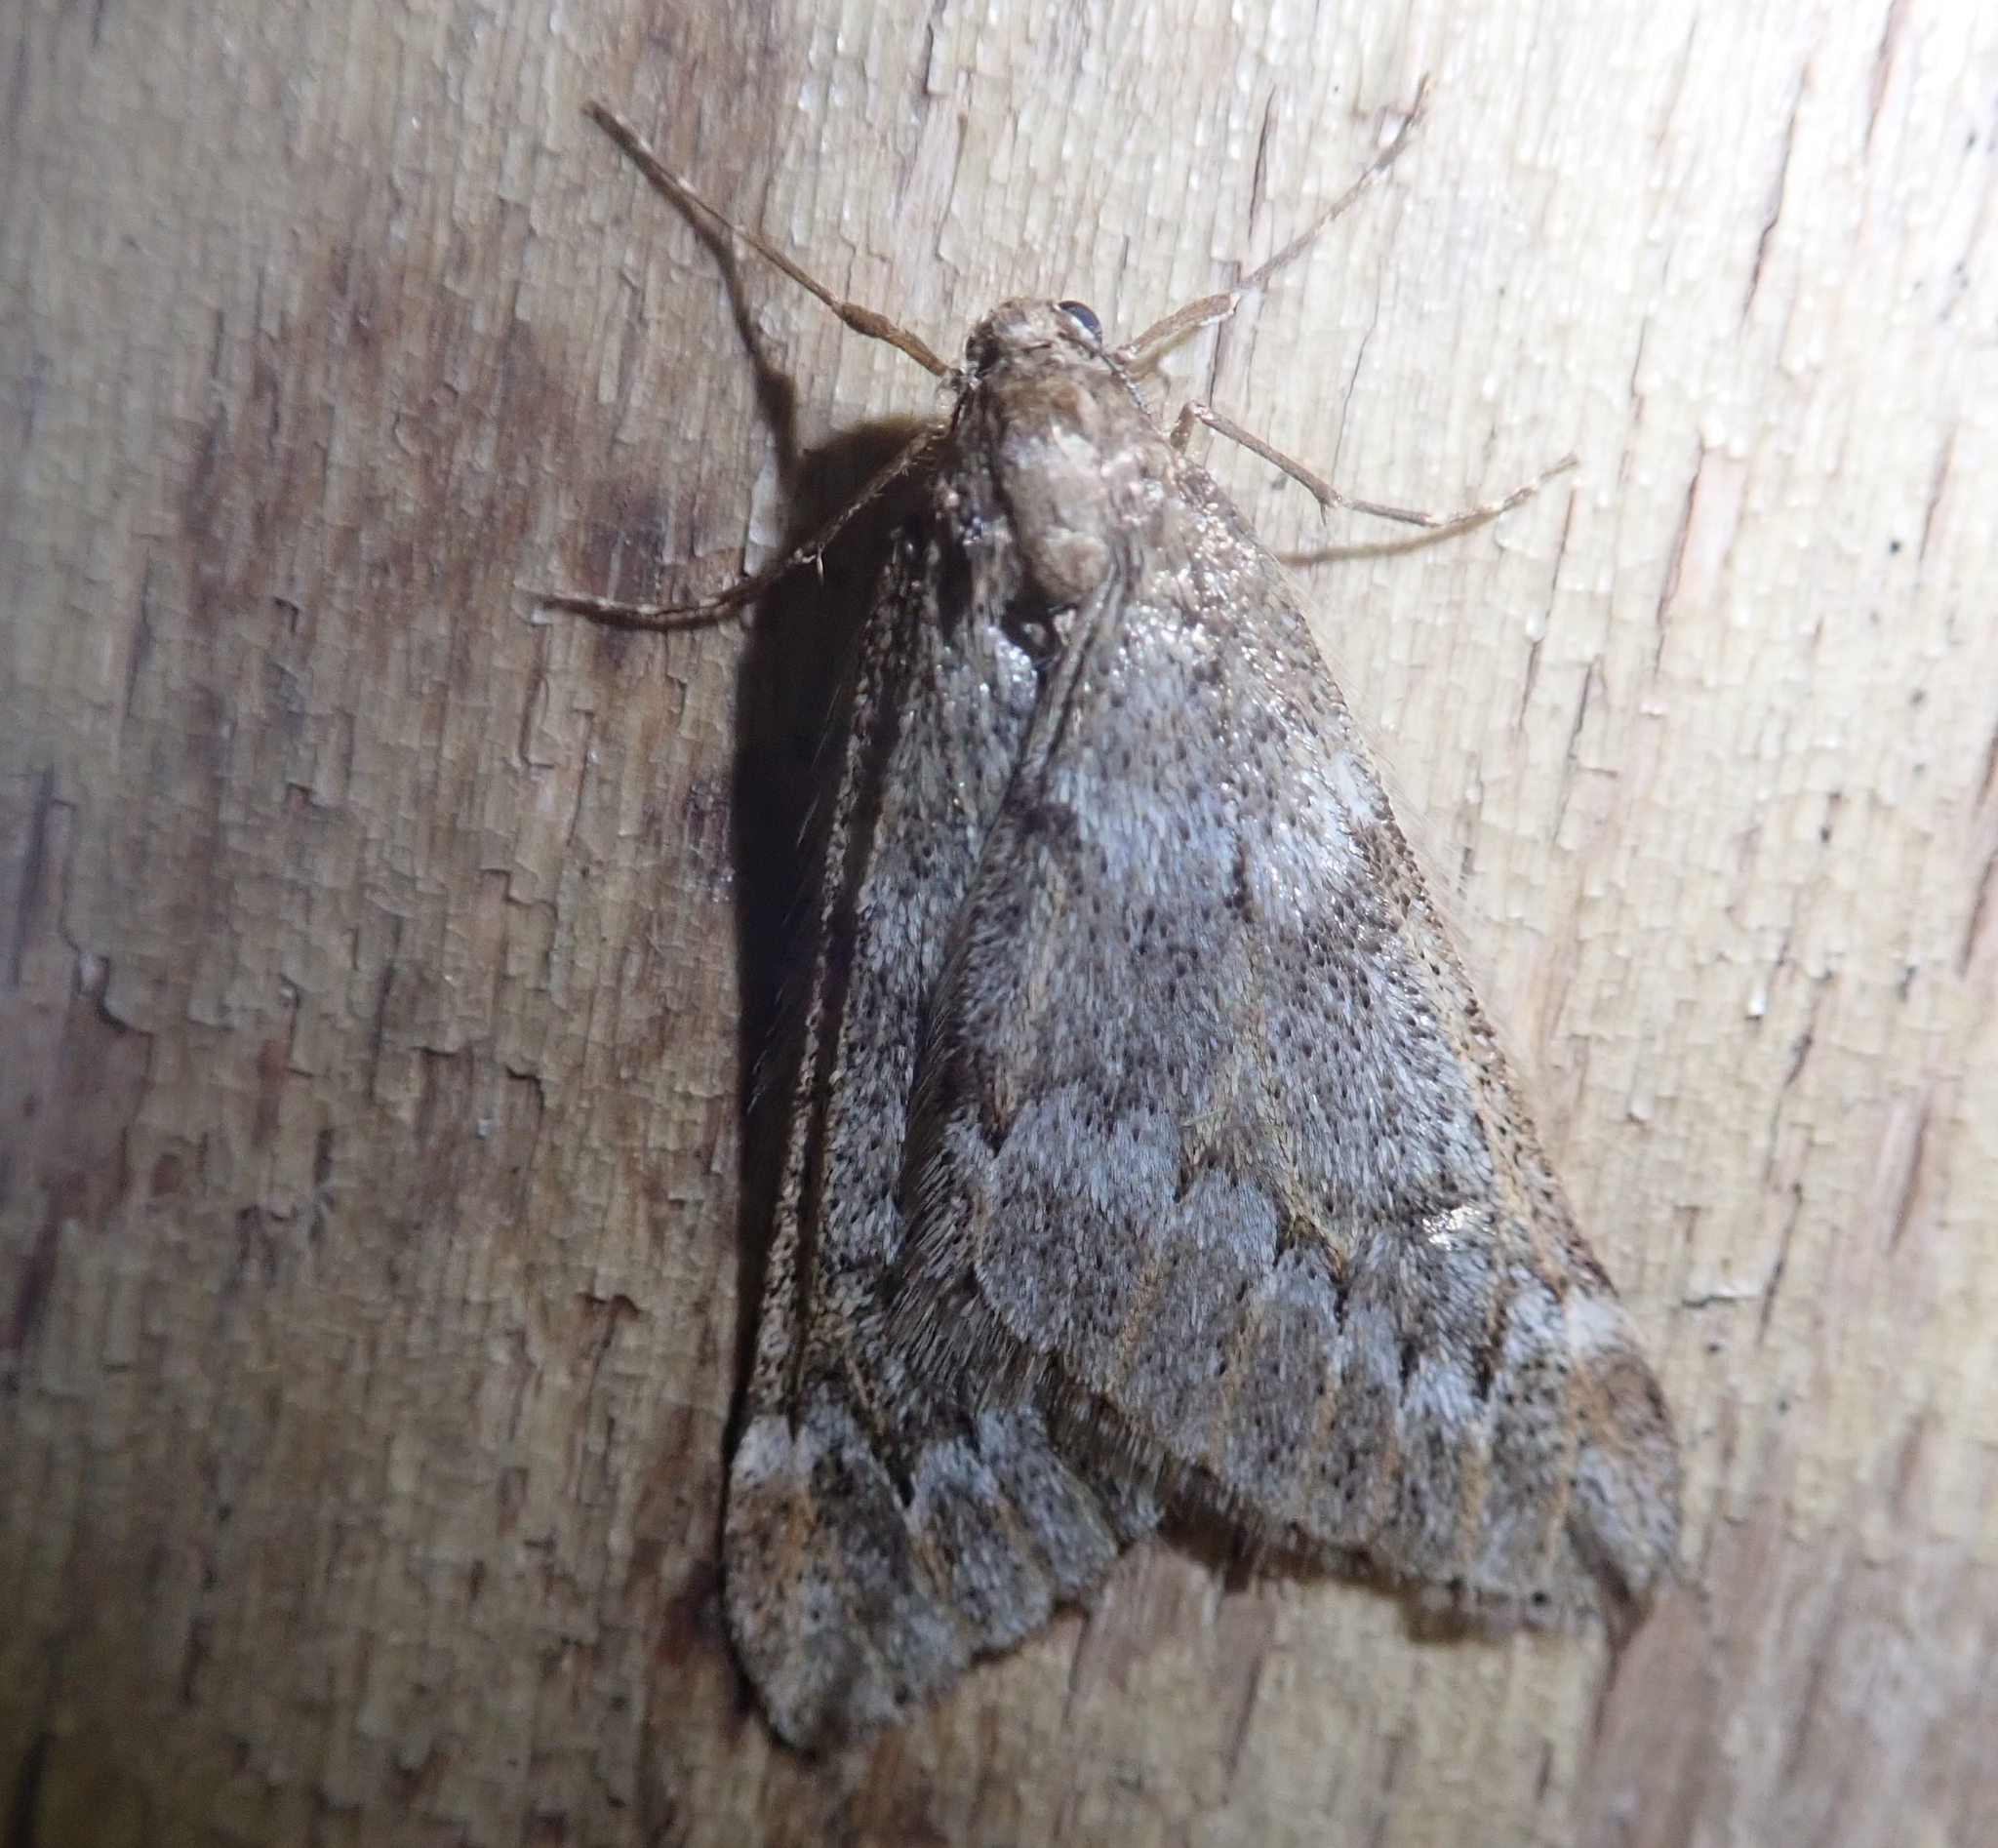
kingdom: Animalia
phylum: Arthropoda
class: Insecta
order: Lepidoptera
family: Geometridae
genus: Alsophila
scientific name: Alsophila aescularia
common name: March moth
